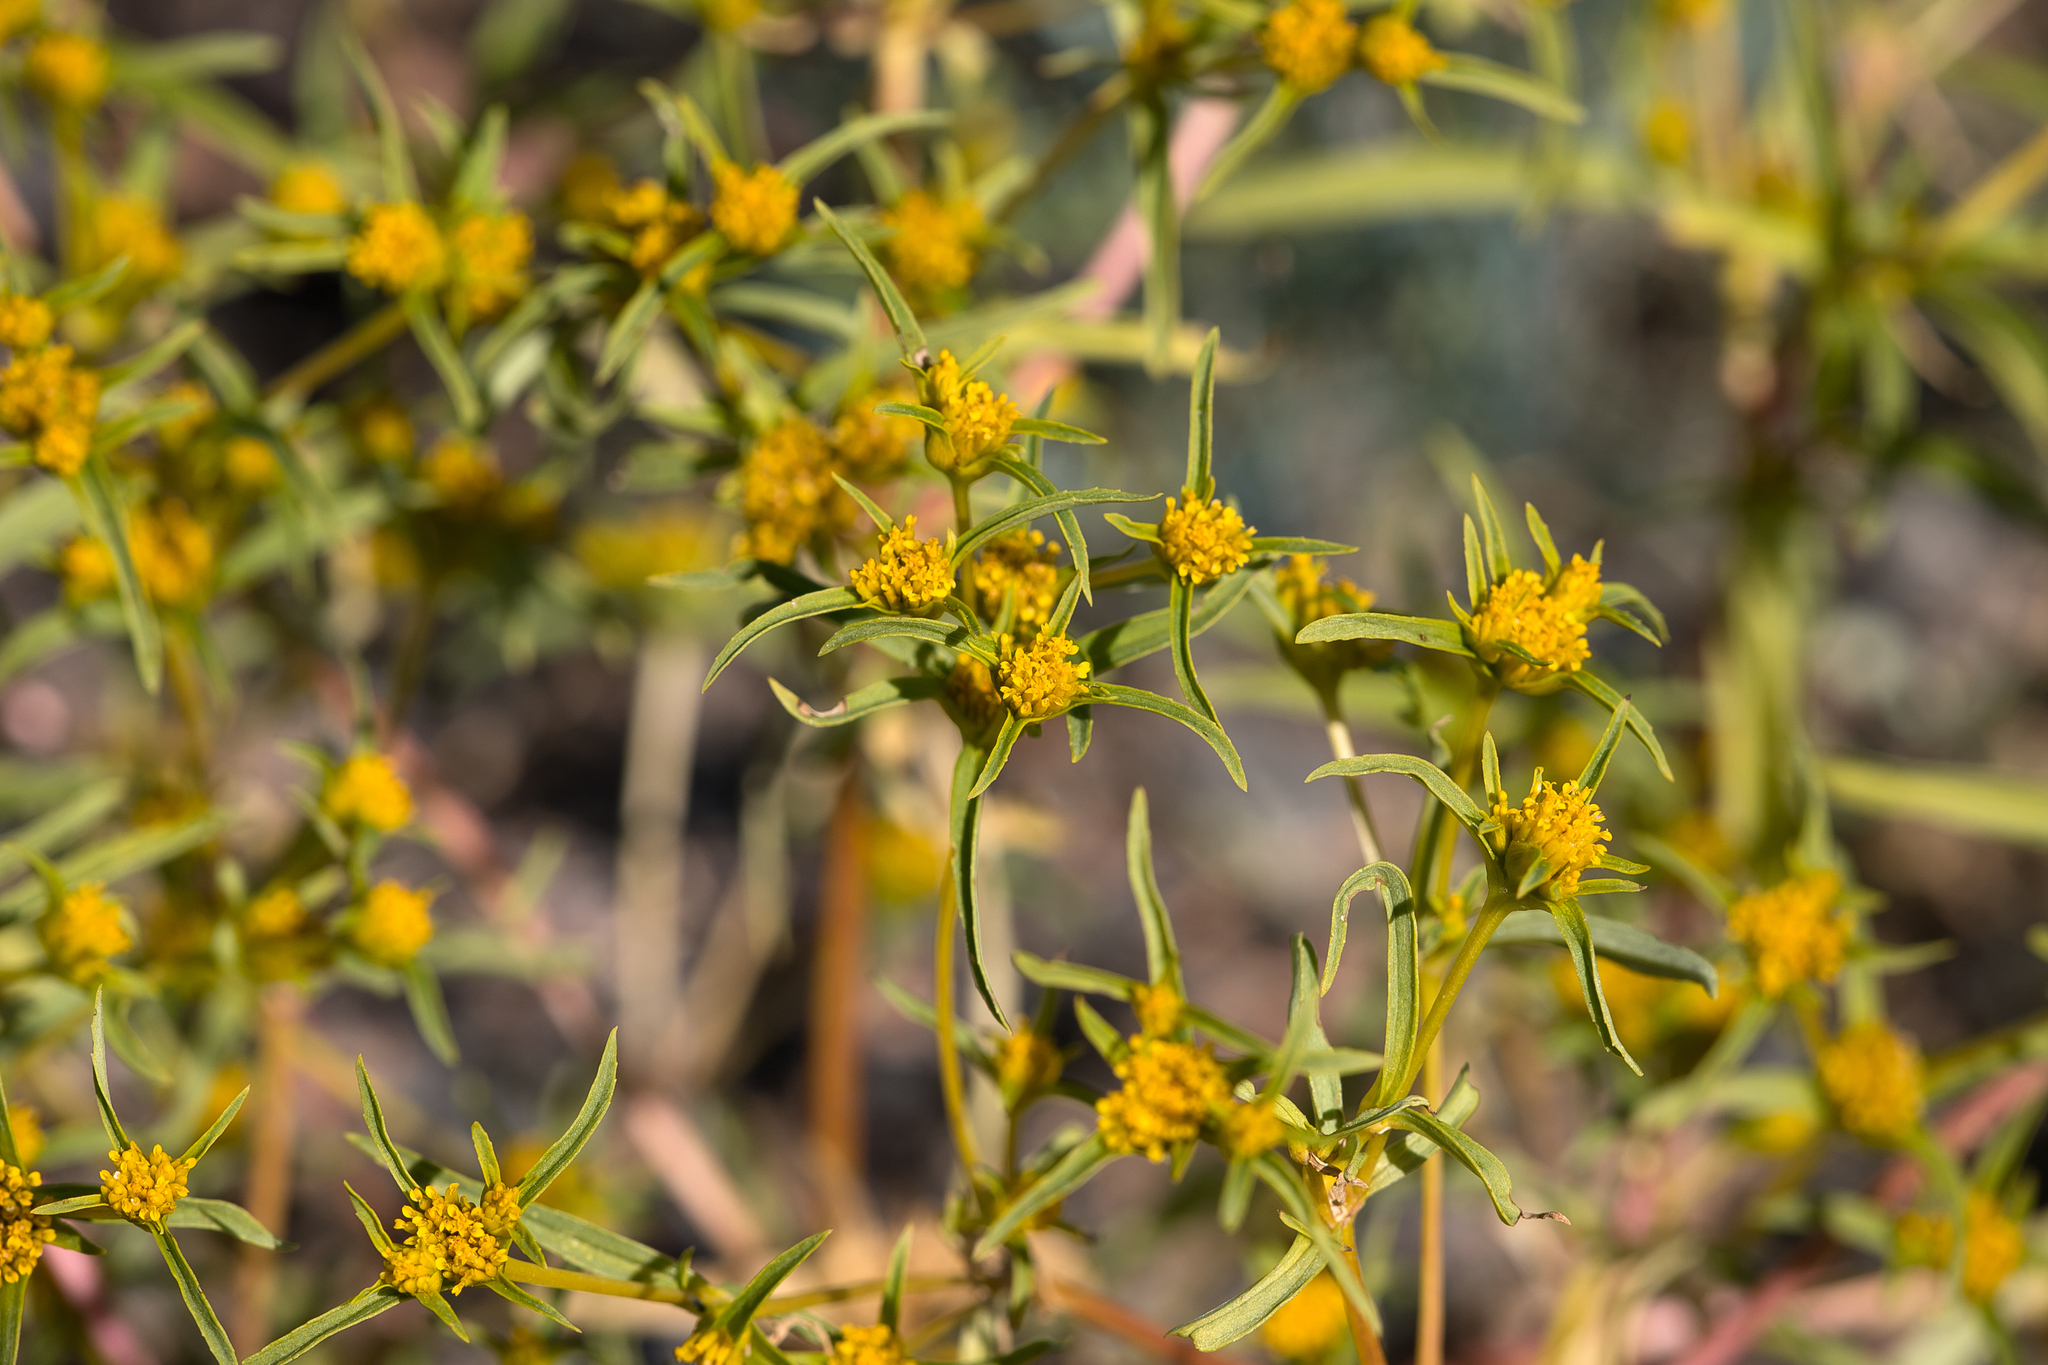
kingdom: Plantae
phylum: Tracheophyta
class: Magnoliopsida
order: Asterales
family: Asteraceae
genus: Flaveria
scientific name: Flaveria trinervia
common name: Clustered yellowtops
